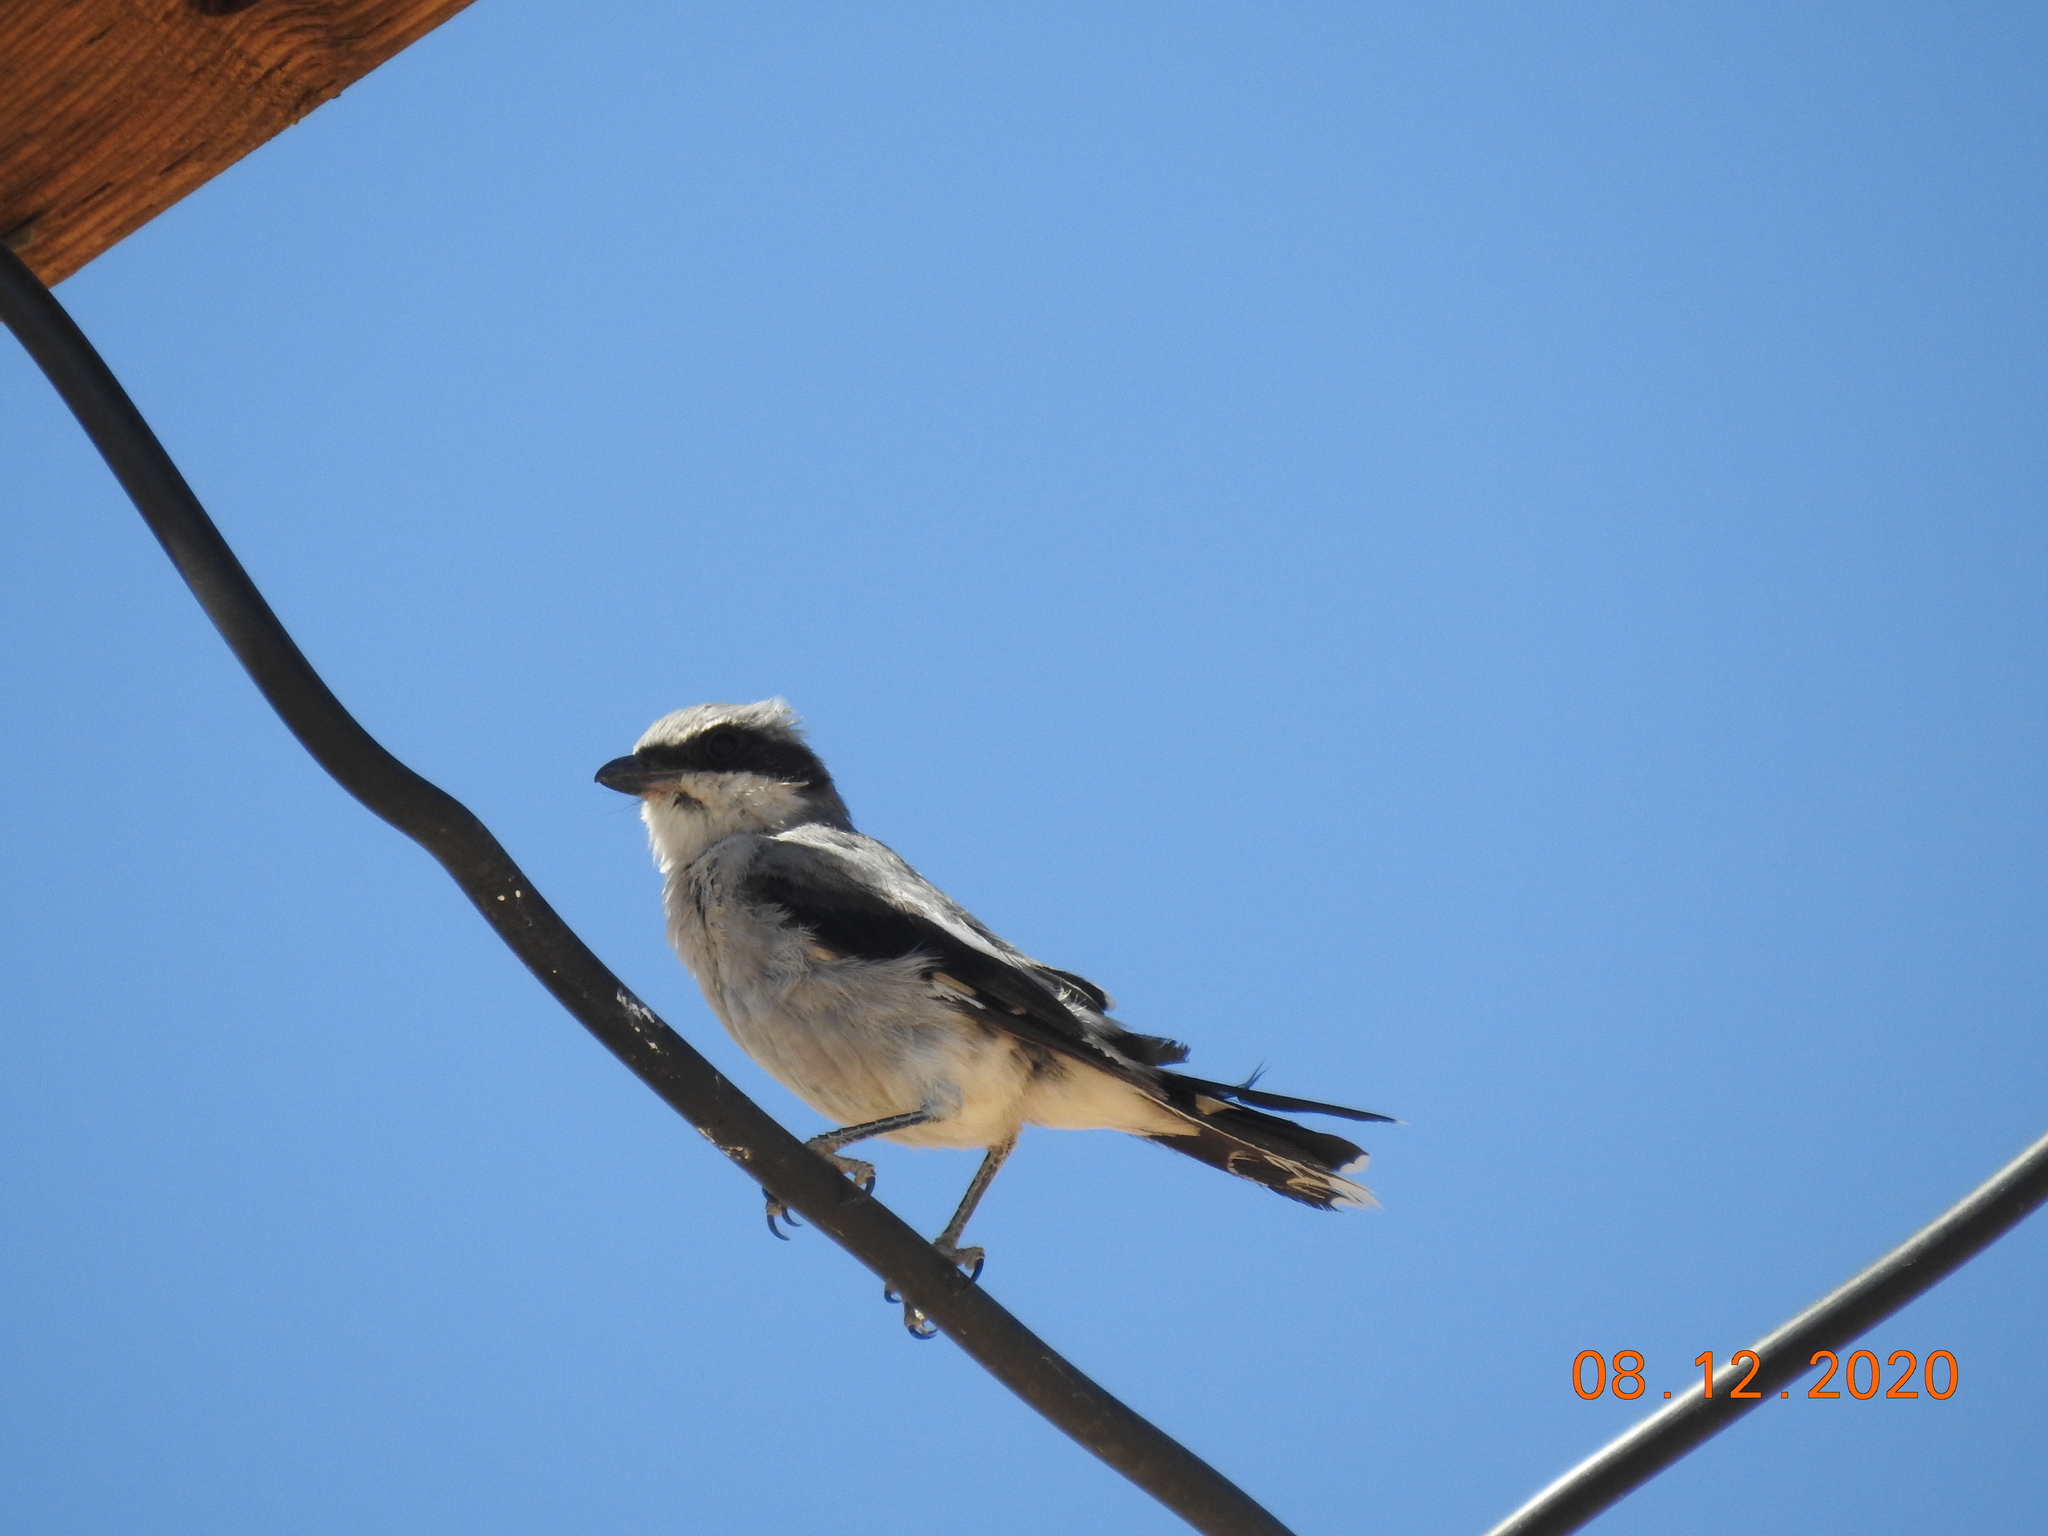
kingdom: Animalia
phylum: Chordata
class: Aves
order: Passeriformes
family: Laniidae
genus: Lanius
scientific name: Lanius ludovicianus
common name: Loggerhead shrike
